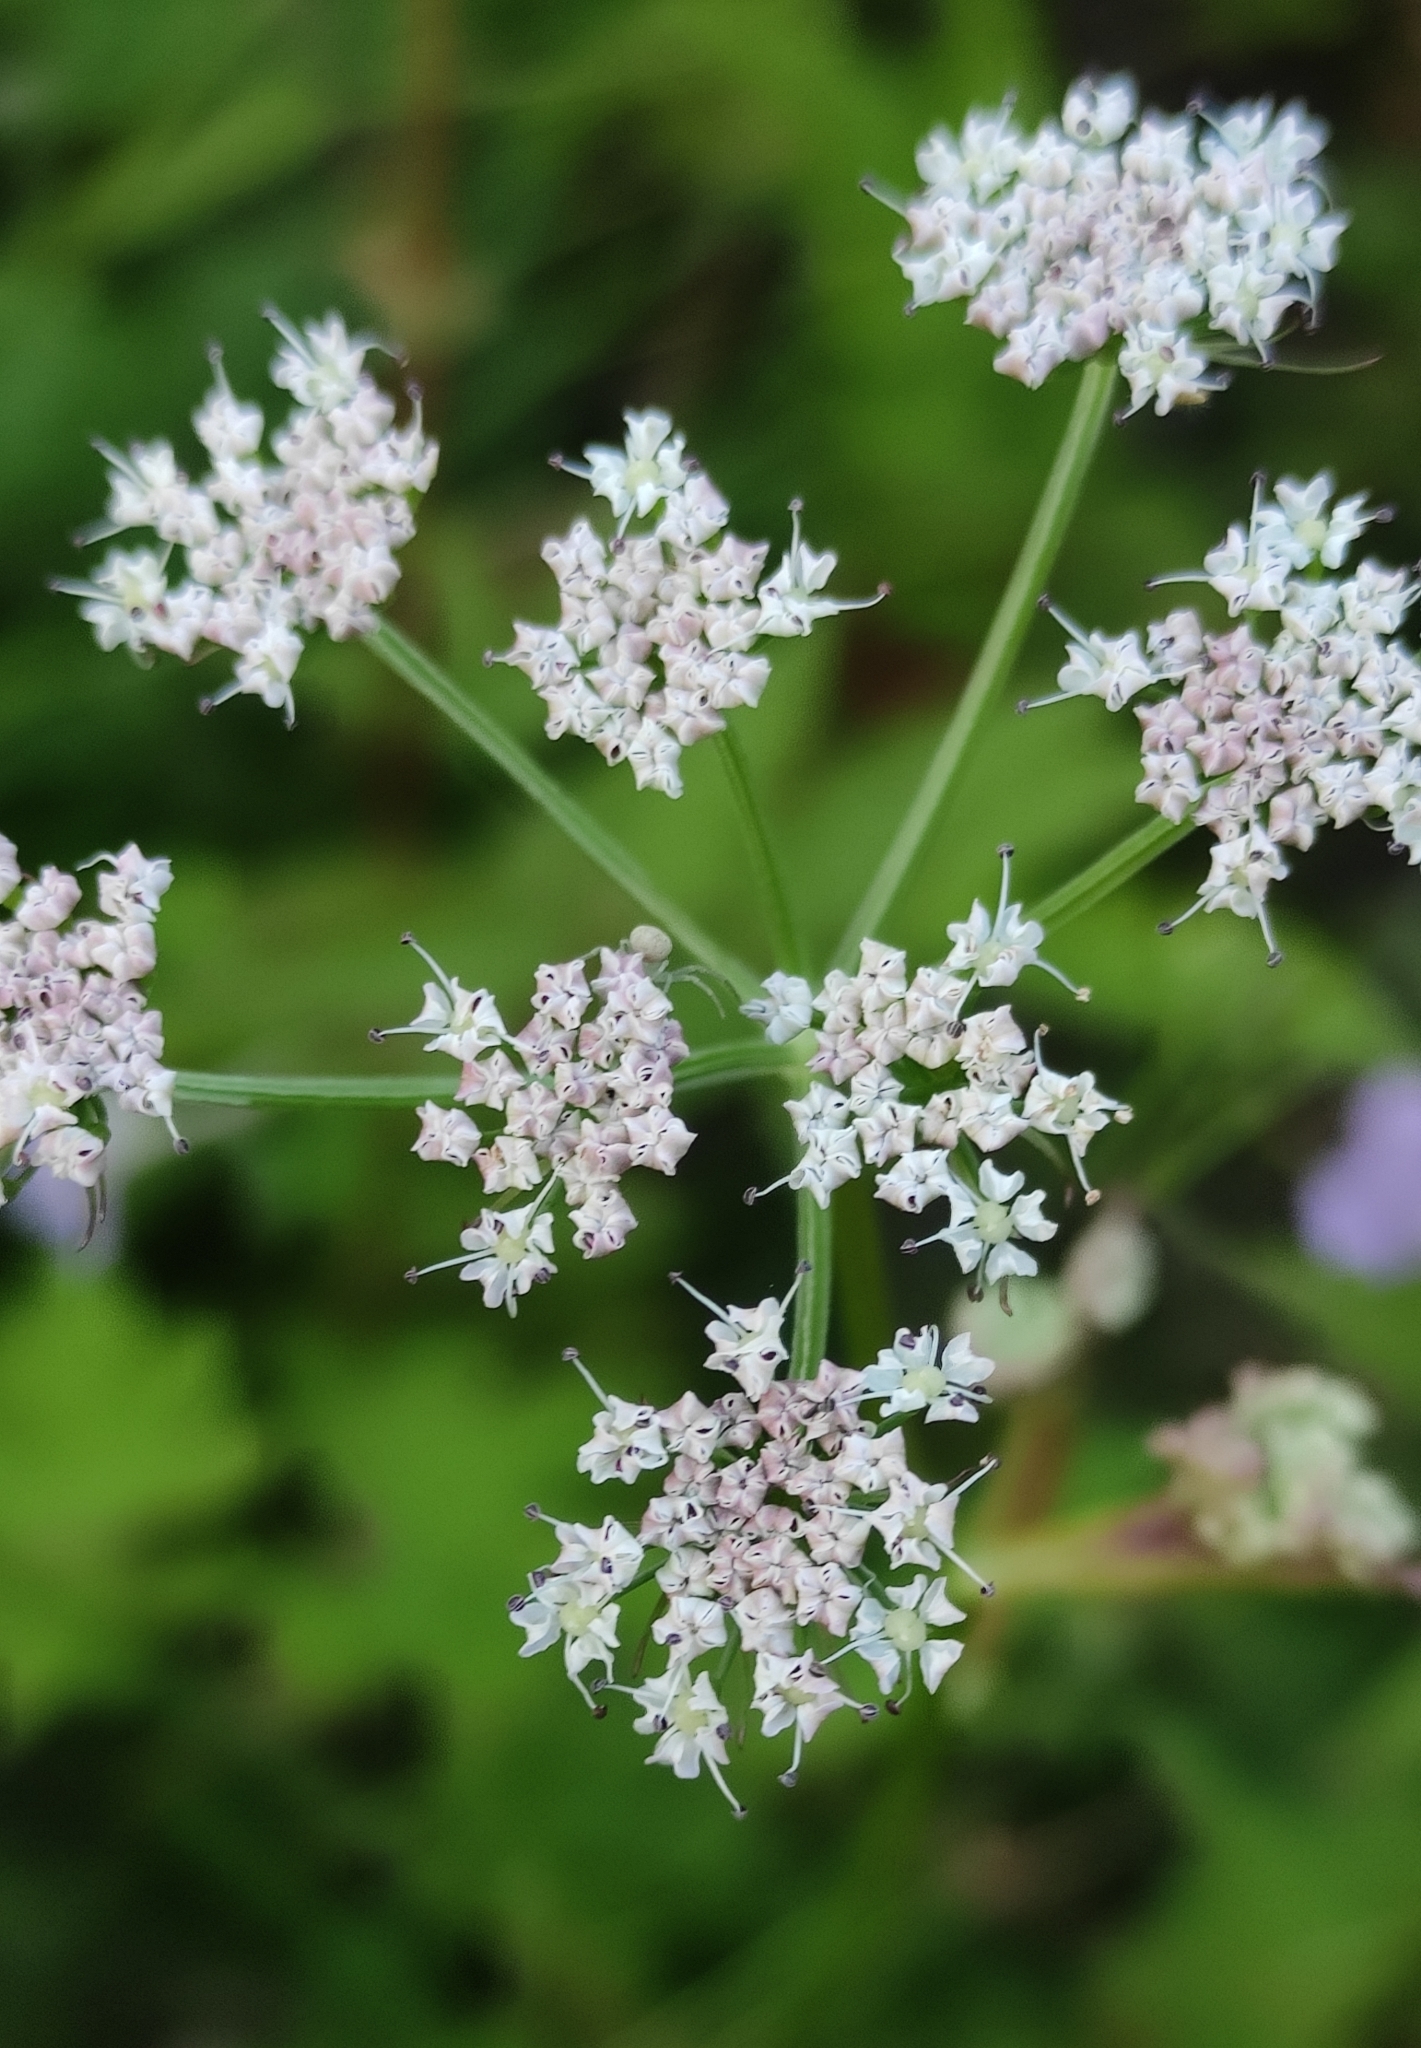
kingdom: Plantae
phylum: Tracheophyta
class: Magnoliopsida
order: Apiales
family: Apiaceae
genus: Ostericum
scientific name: Ostericum tenuifolium
